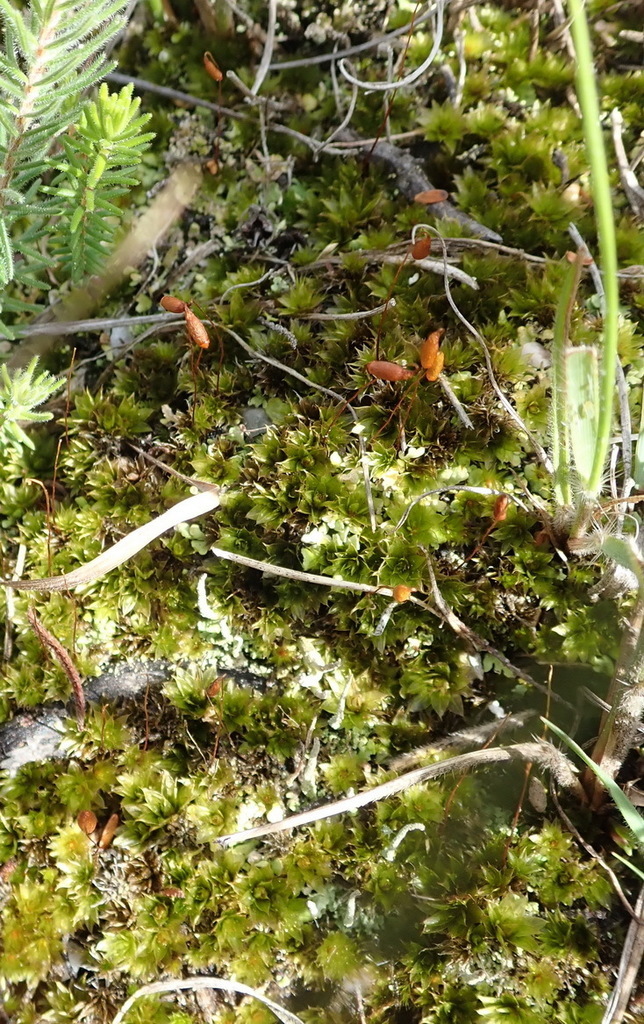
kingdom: Plantae
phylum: Bryophyta
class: Bryopsida
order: Bryales
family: Bryaceae
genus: Rosulabryum
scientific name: Rosulabryum canariense
